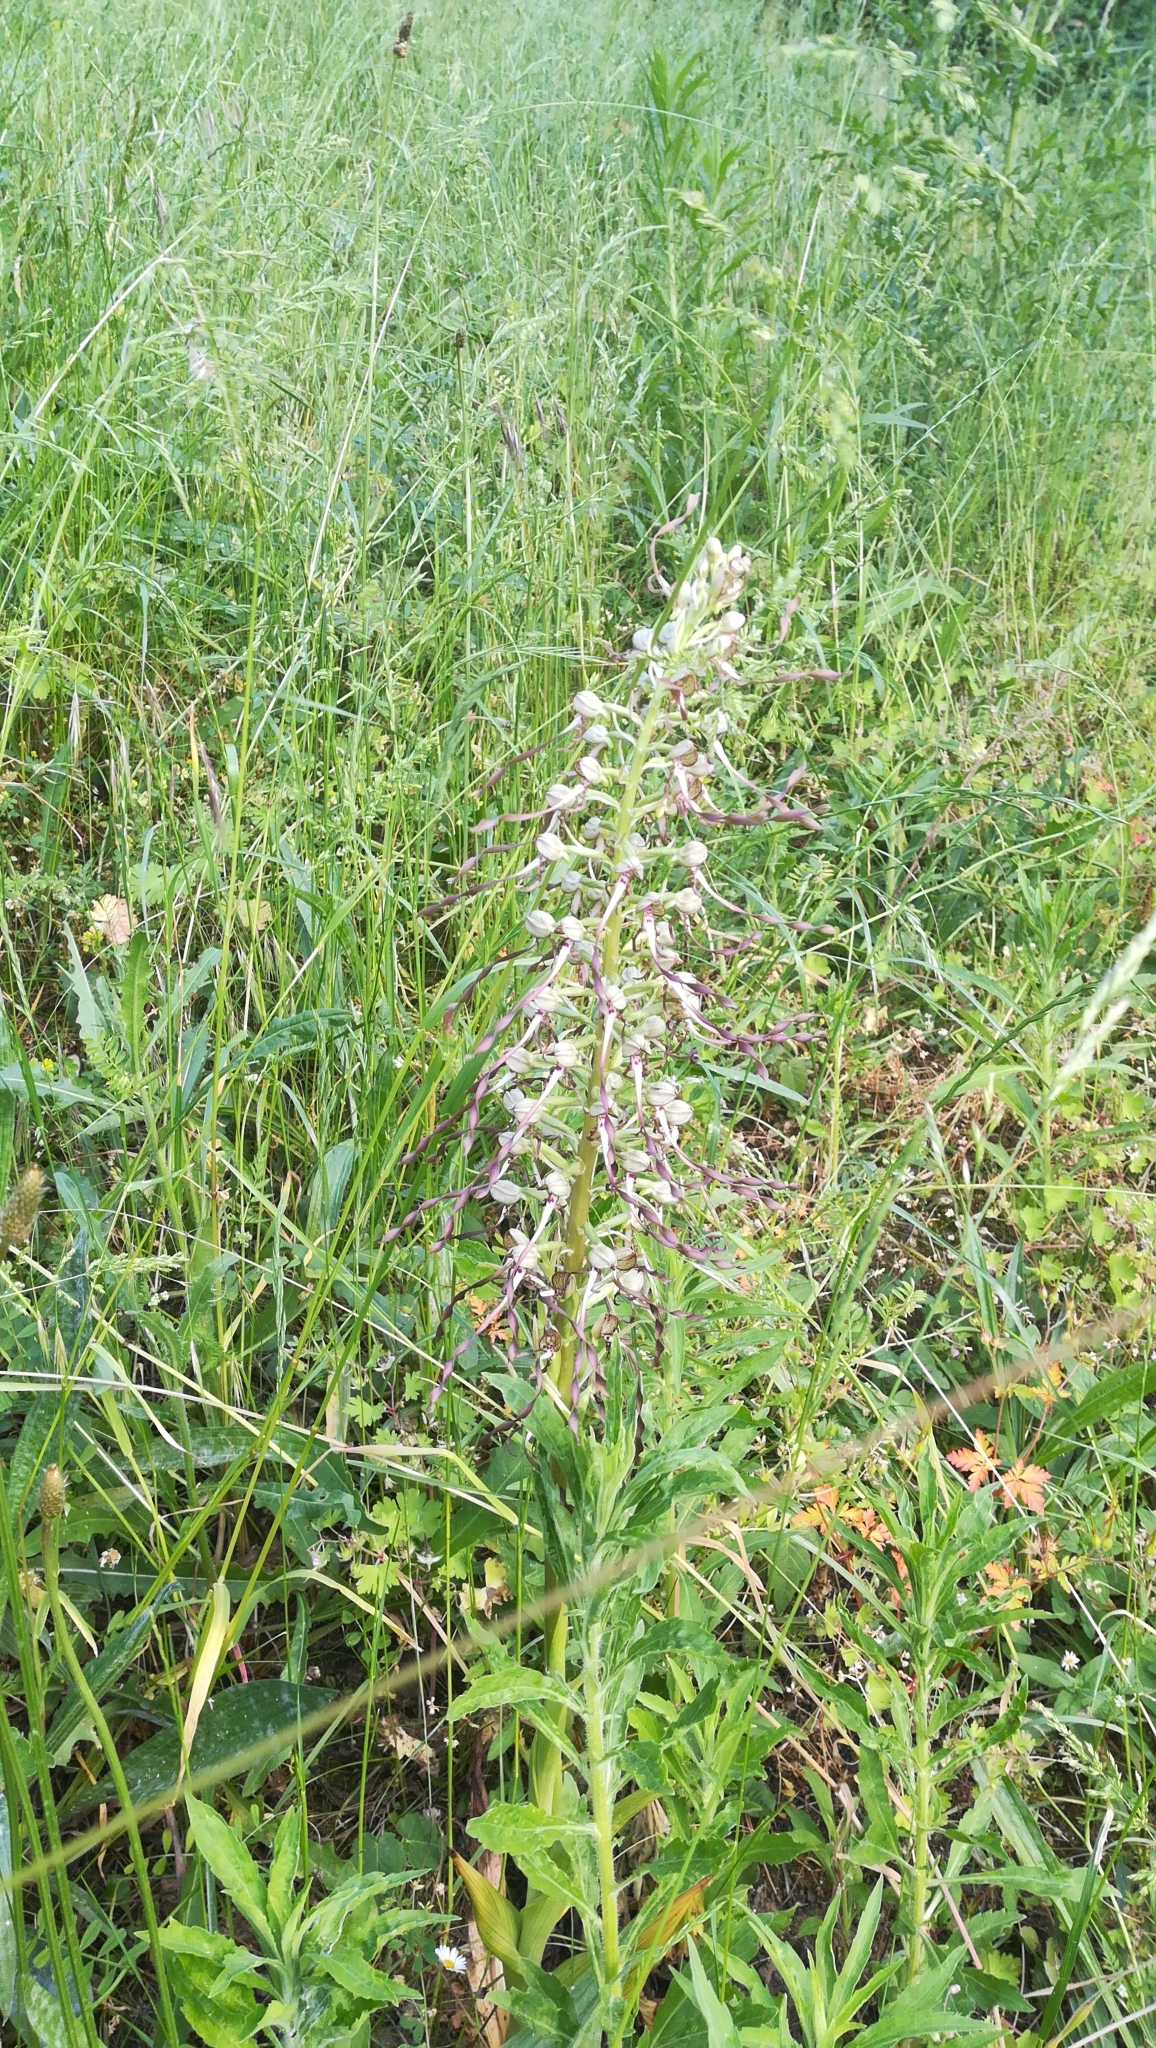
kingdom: Plantae
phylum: Tracheophyta
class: Liliopsida
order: Asparagales
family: Orchidaceae
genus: Himantoglossum
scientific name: Himantoglossum hircinum
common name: Lizard orchid
